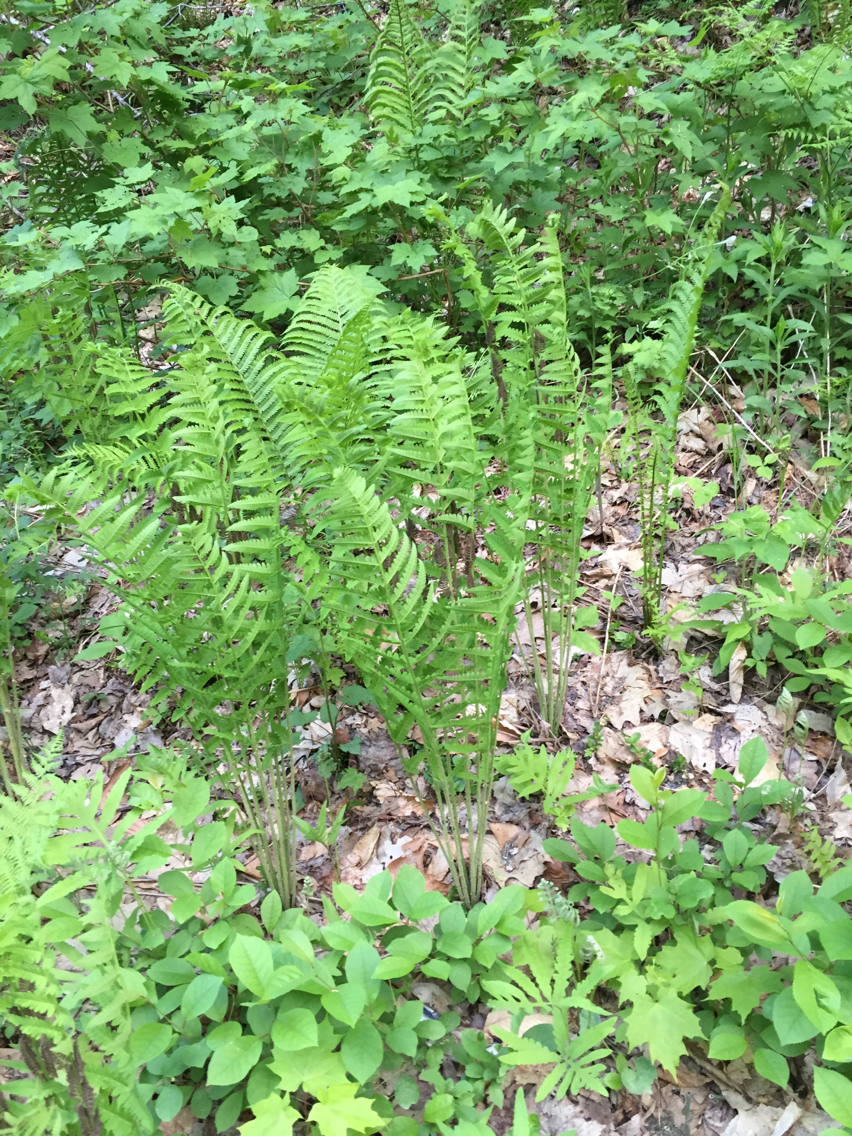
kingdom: Plantae
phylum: Tracheophyta
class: Polypodiopsida
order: Osmundales
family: Osmundaceae
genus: Claytosmunda
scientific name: Claytosmunda claytoniana
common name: Clayton's fern
